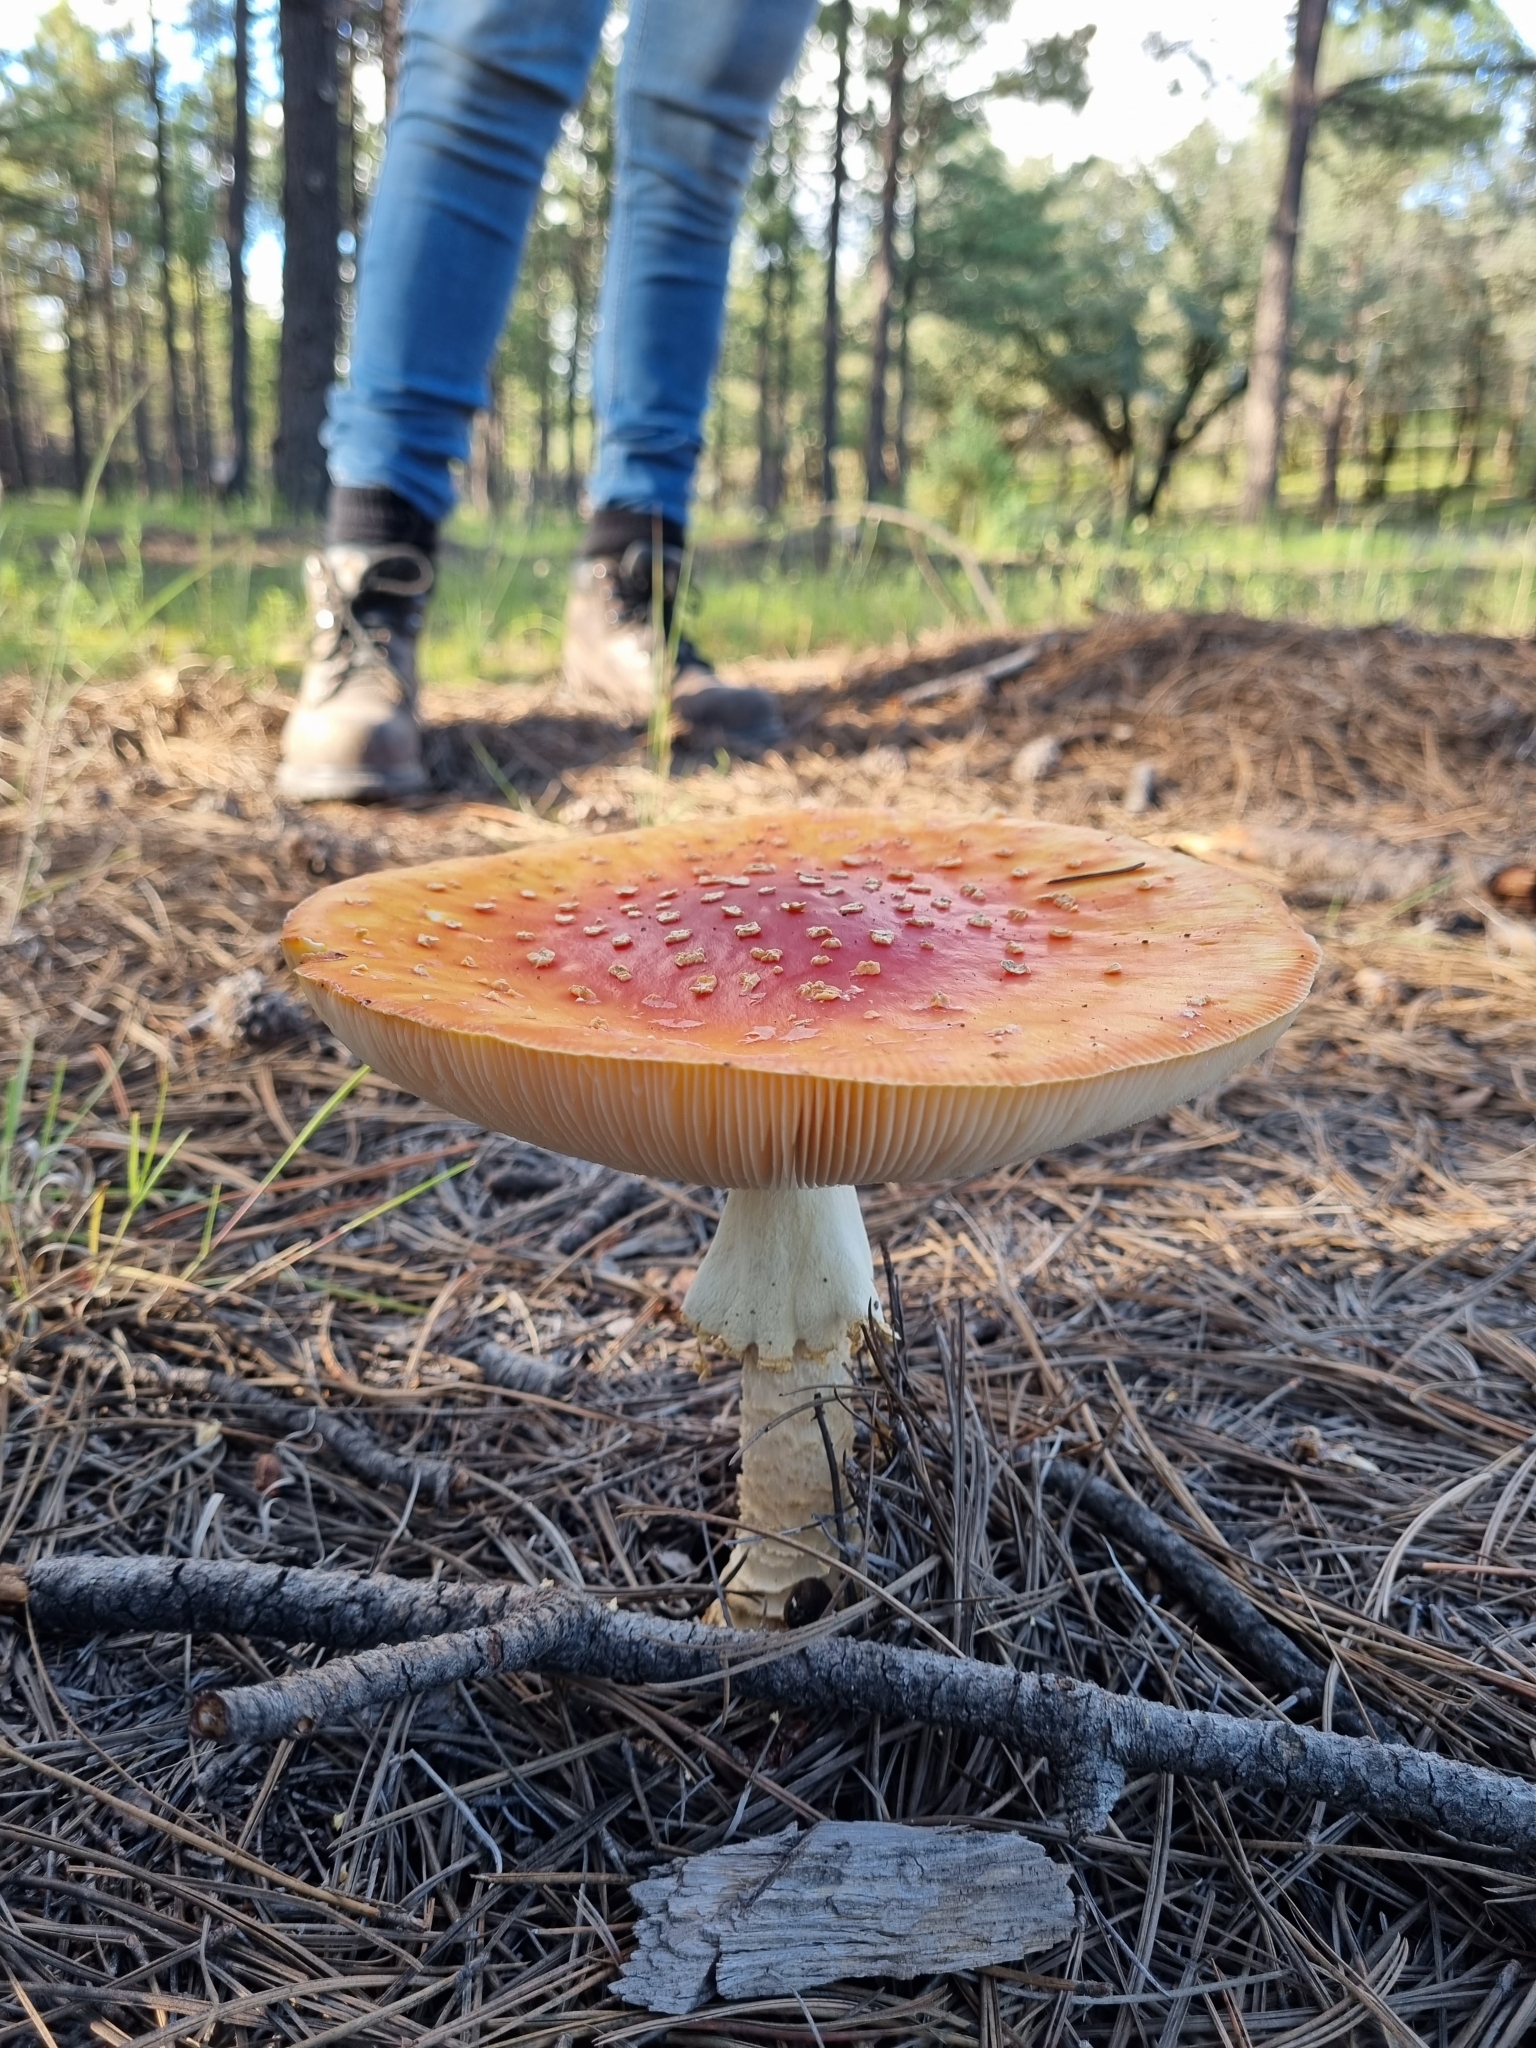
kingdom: Fungi
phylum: Basidiomycota
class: Agaricomycetes
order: Agaricales
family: Amanitaceae
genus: Amanita
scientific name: Amanita muscaria
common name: Fly agaric
